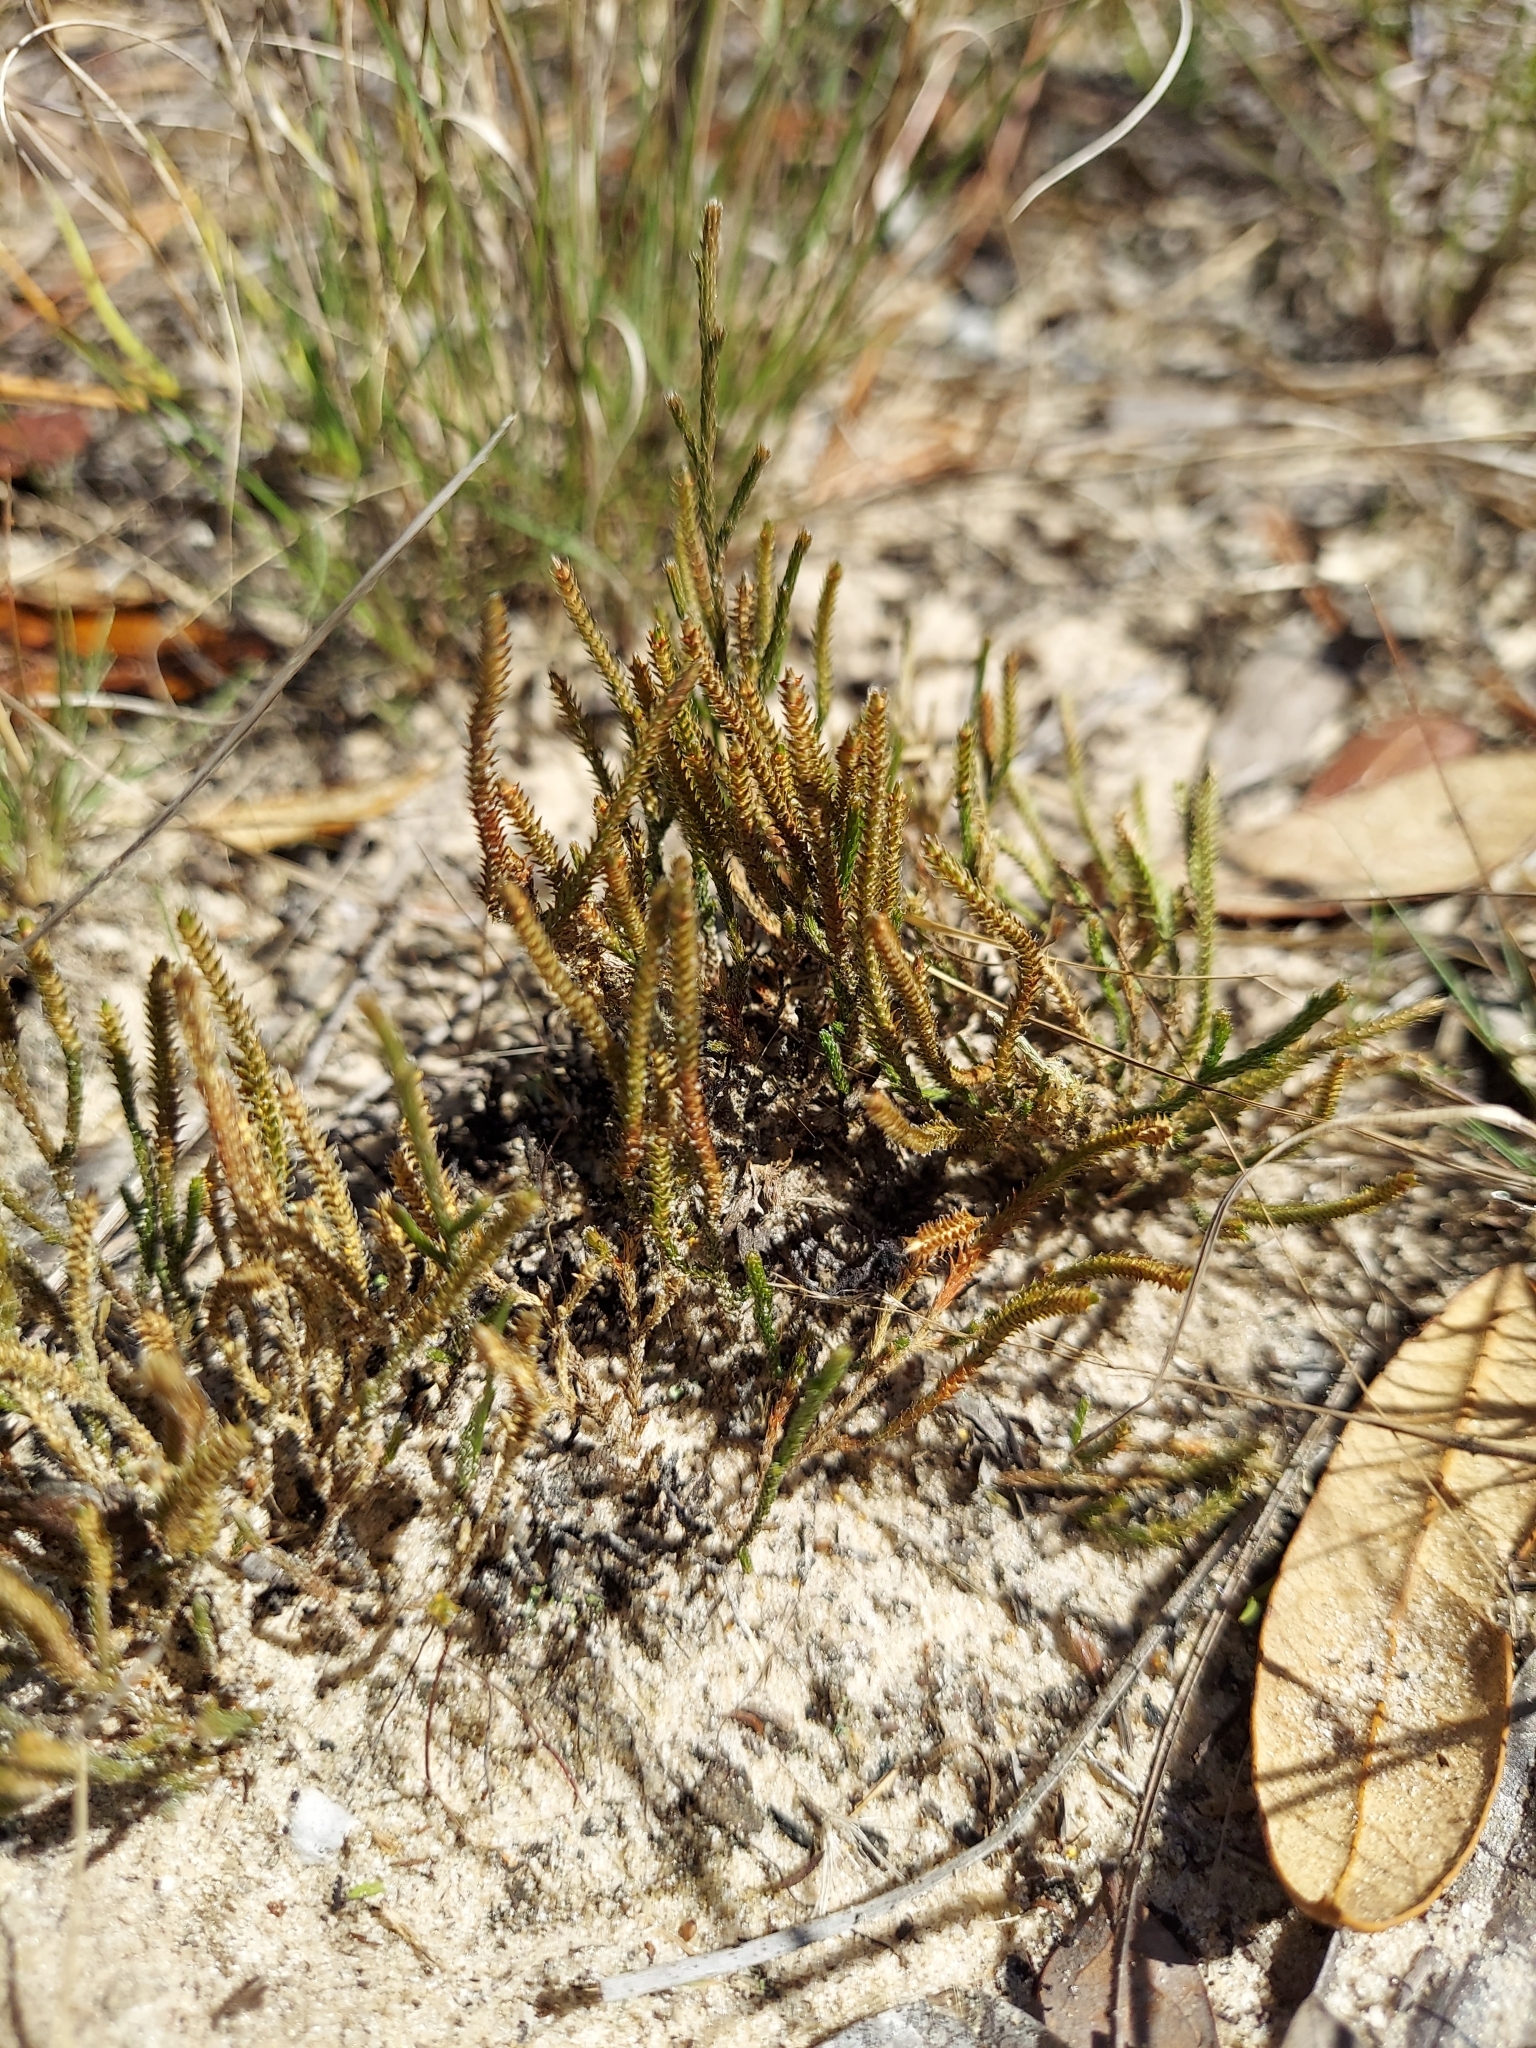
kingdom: Plantae
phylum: Tracheophyta
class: Lycopodiopsida
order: Selaginellales
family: Selaginellaceae
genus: Selaginella
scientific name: Selaginella arenicola
